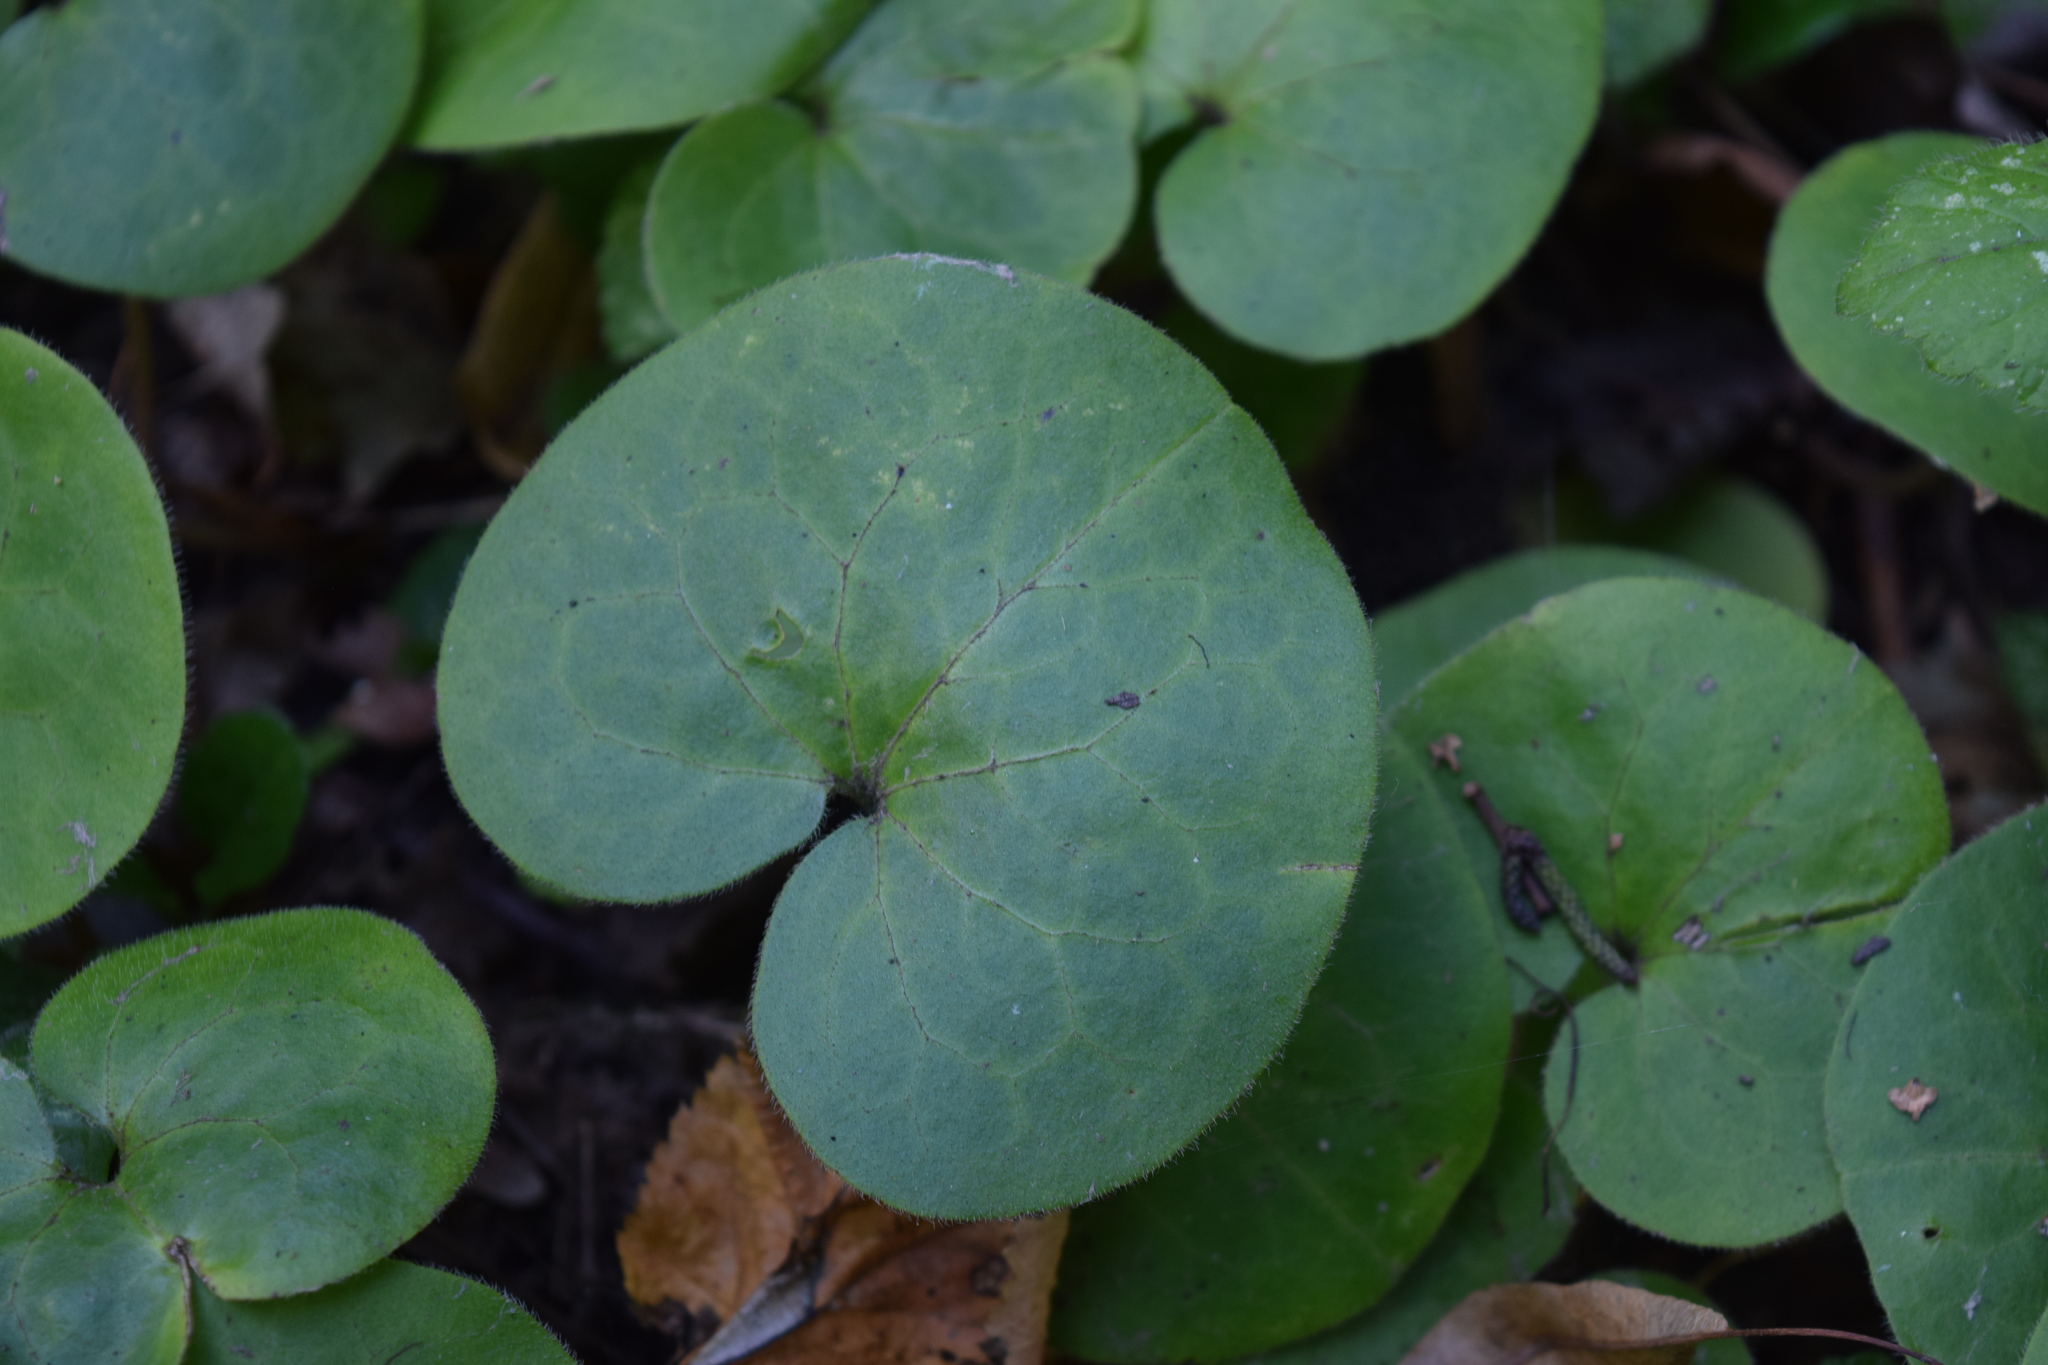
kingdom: Plantae
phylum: Tracheophyta
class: Magnoliopsida
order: Piperales
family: Aristolochiaceae
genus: Asarum
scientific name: Asarum europaeum
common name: Asarabacca
